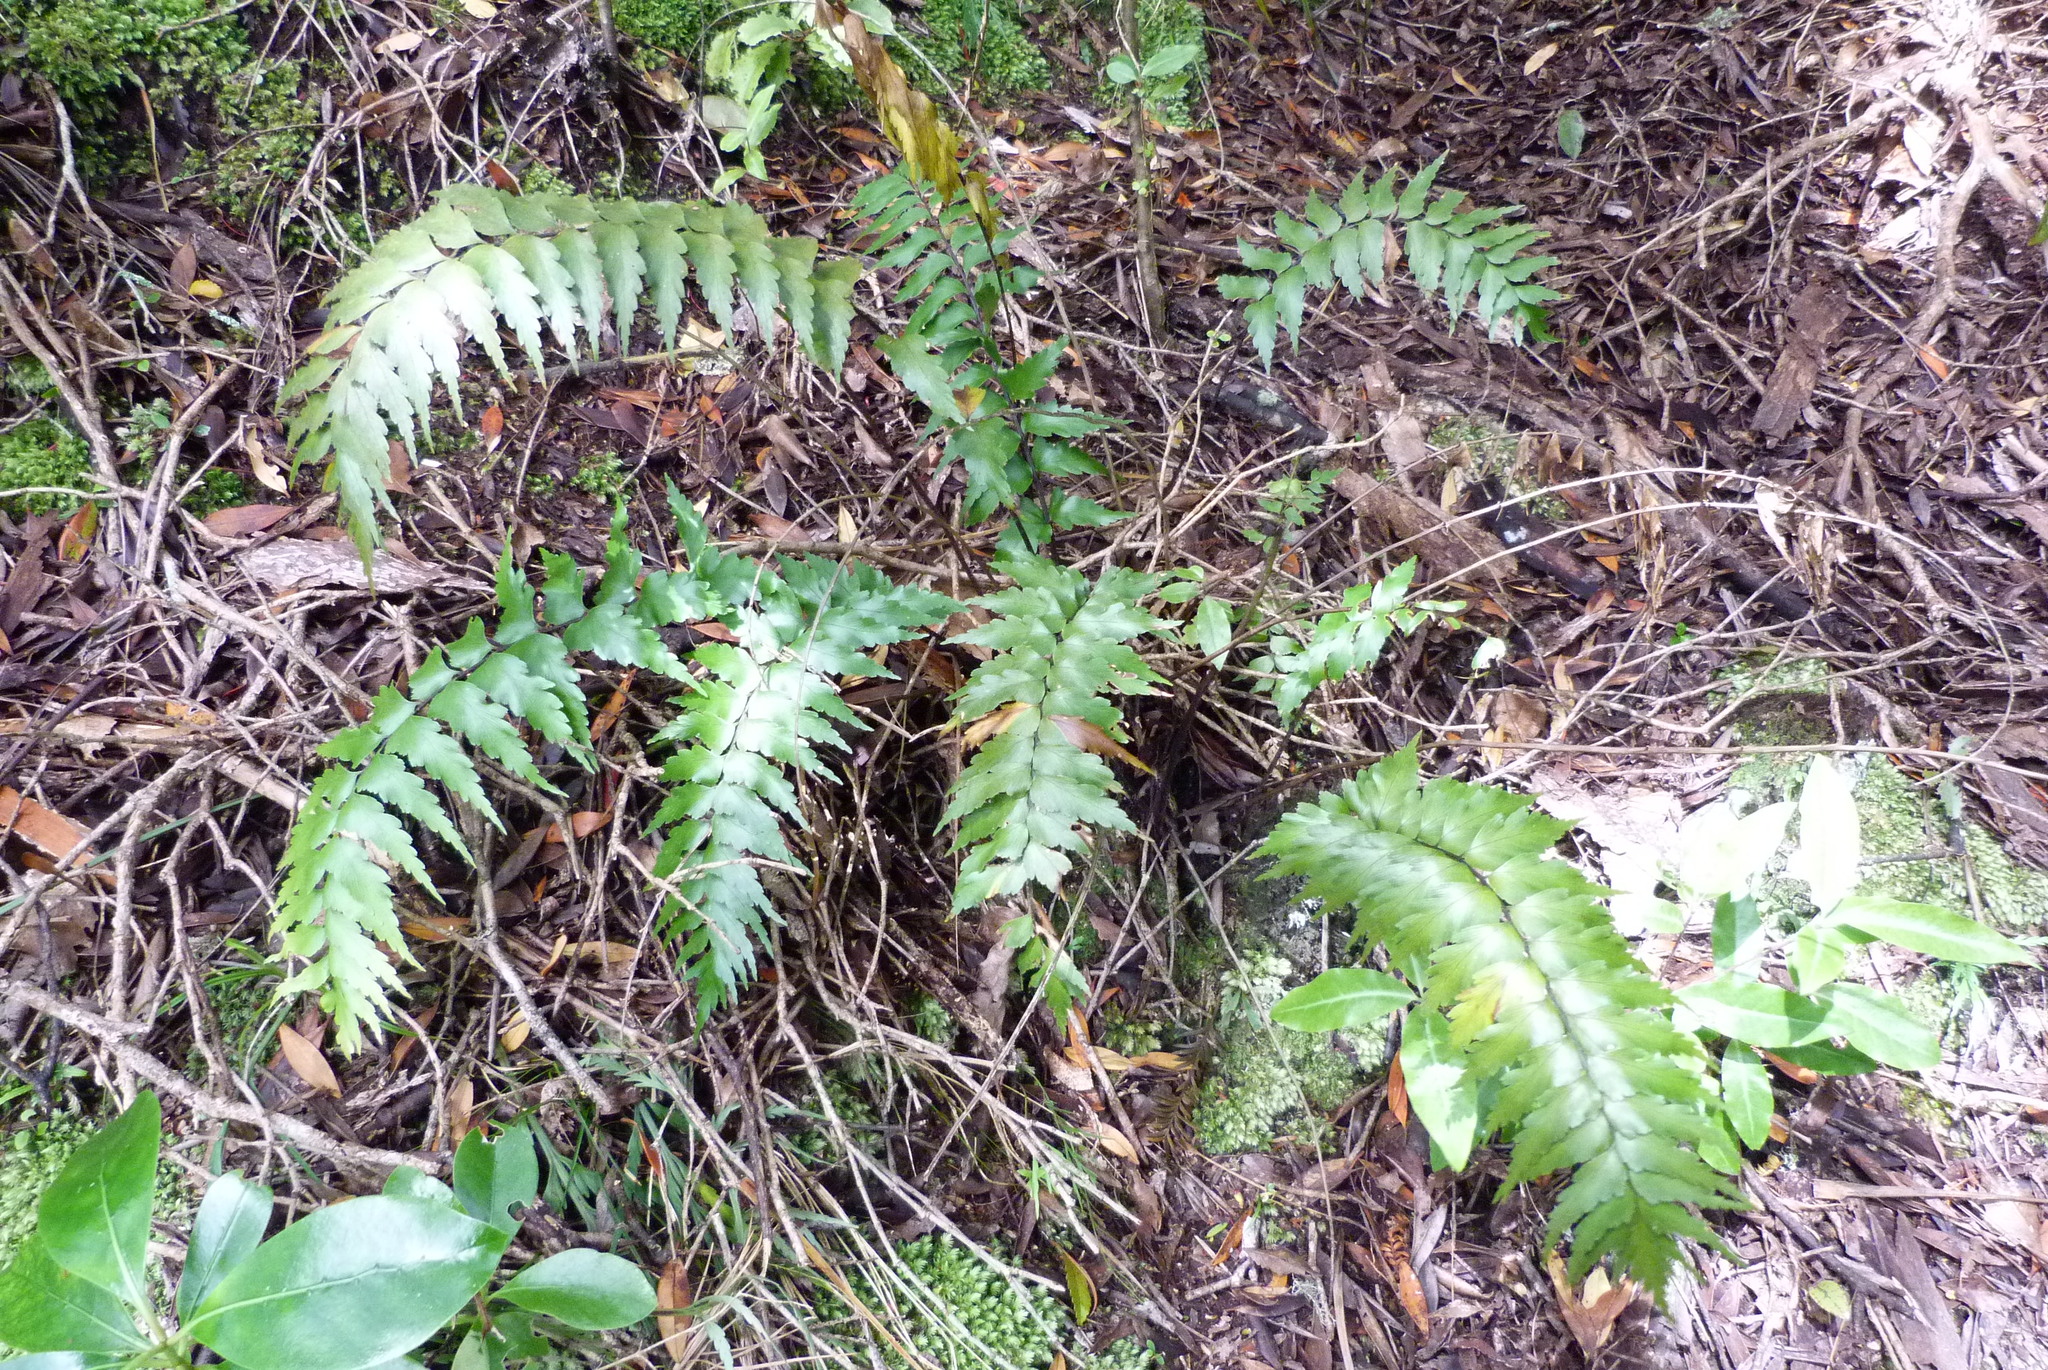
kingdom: Plantae
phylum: Tracheophyta
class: Polypodiopsida
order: Polypodiales
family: Aspleniaceae
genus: Asplenium
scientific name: Asplenium polyodon
